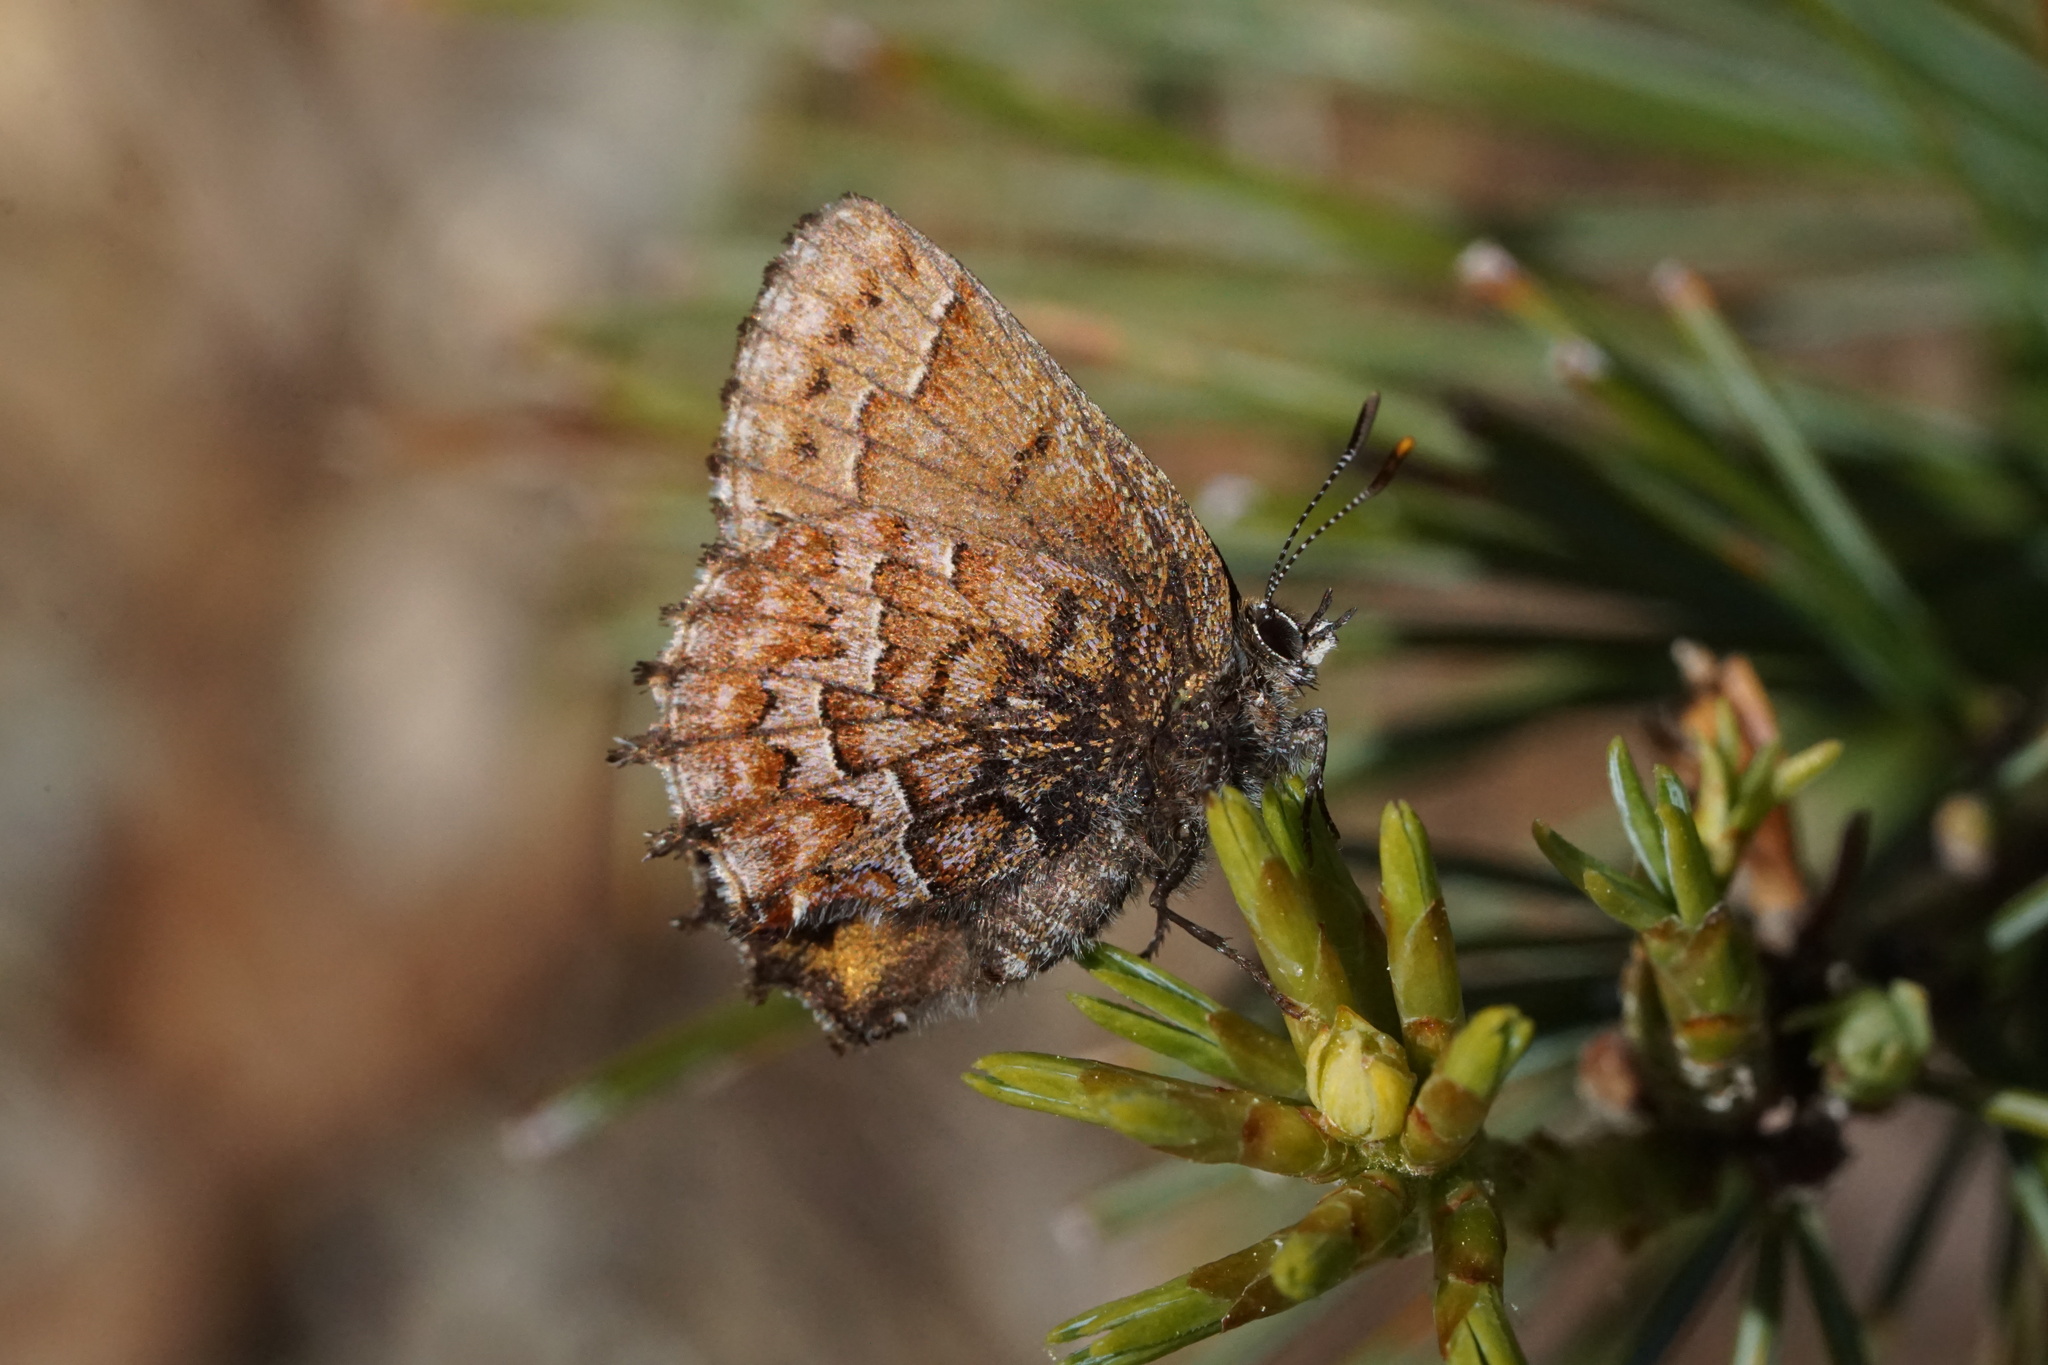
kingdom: Animalia
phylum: Arthropoda
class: Insecta
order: Lepidoptera
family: Lycaenidae
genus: Incisalia
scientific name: Incisalia niphon
